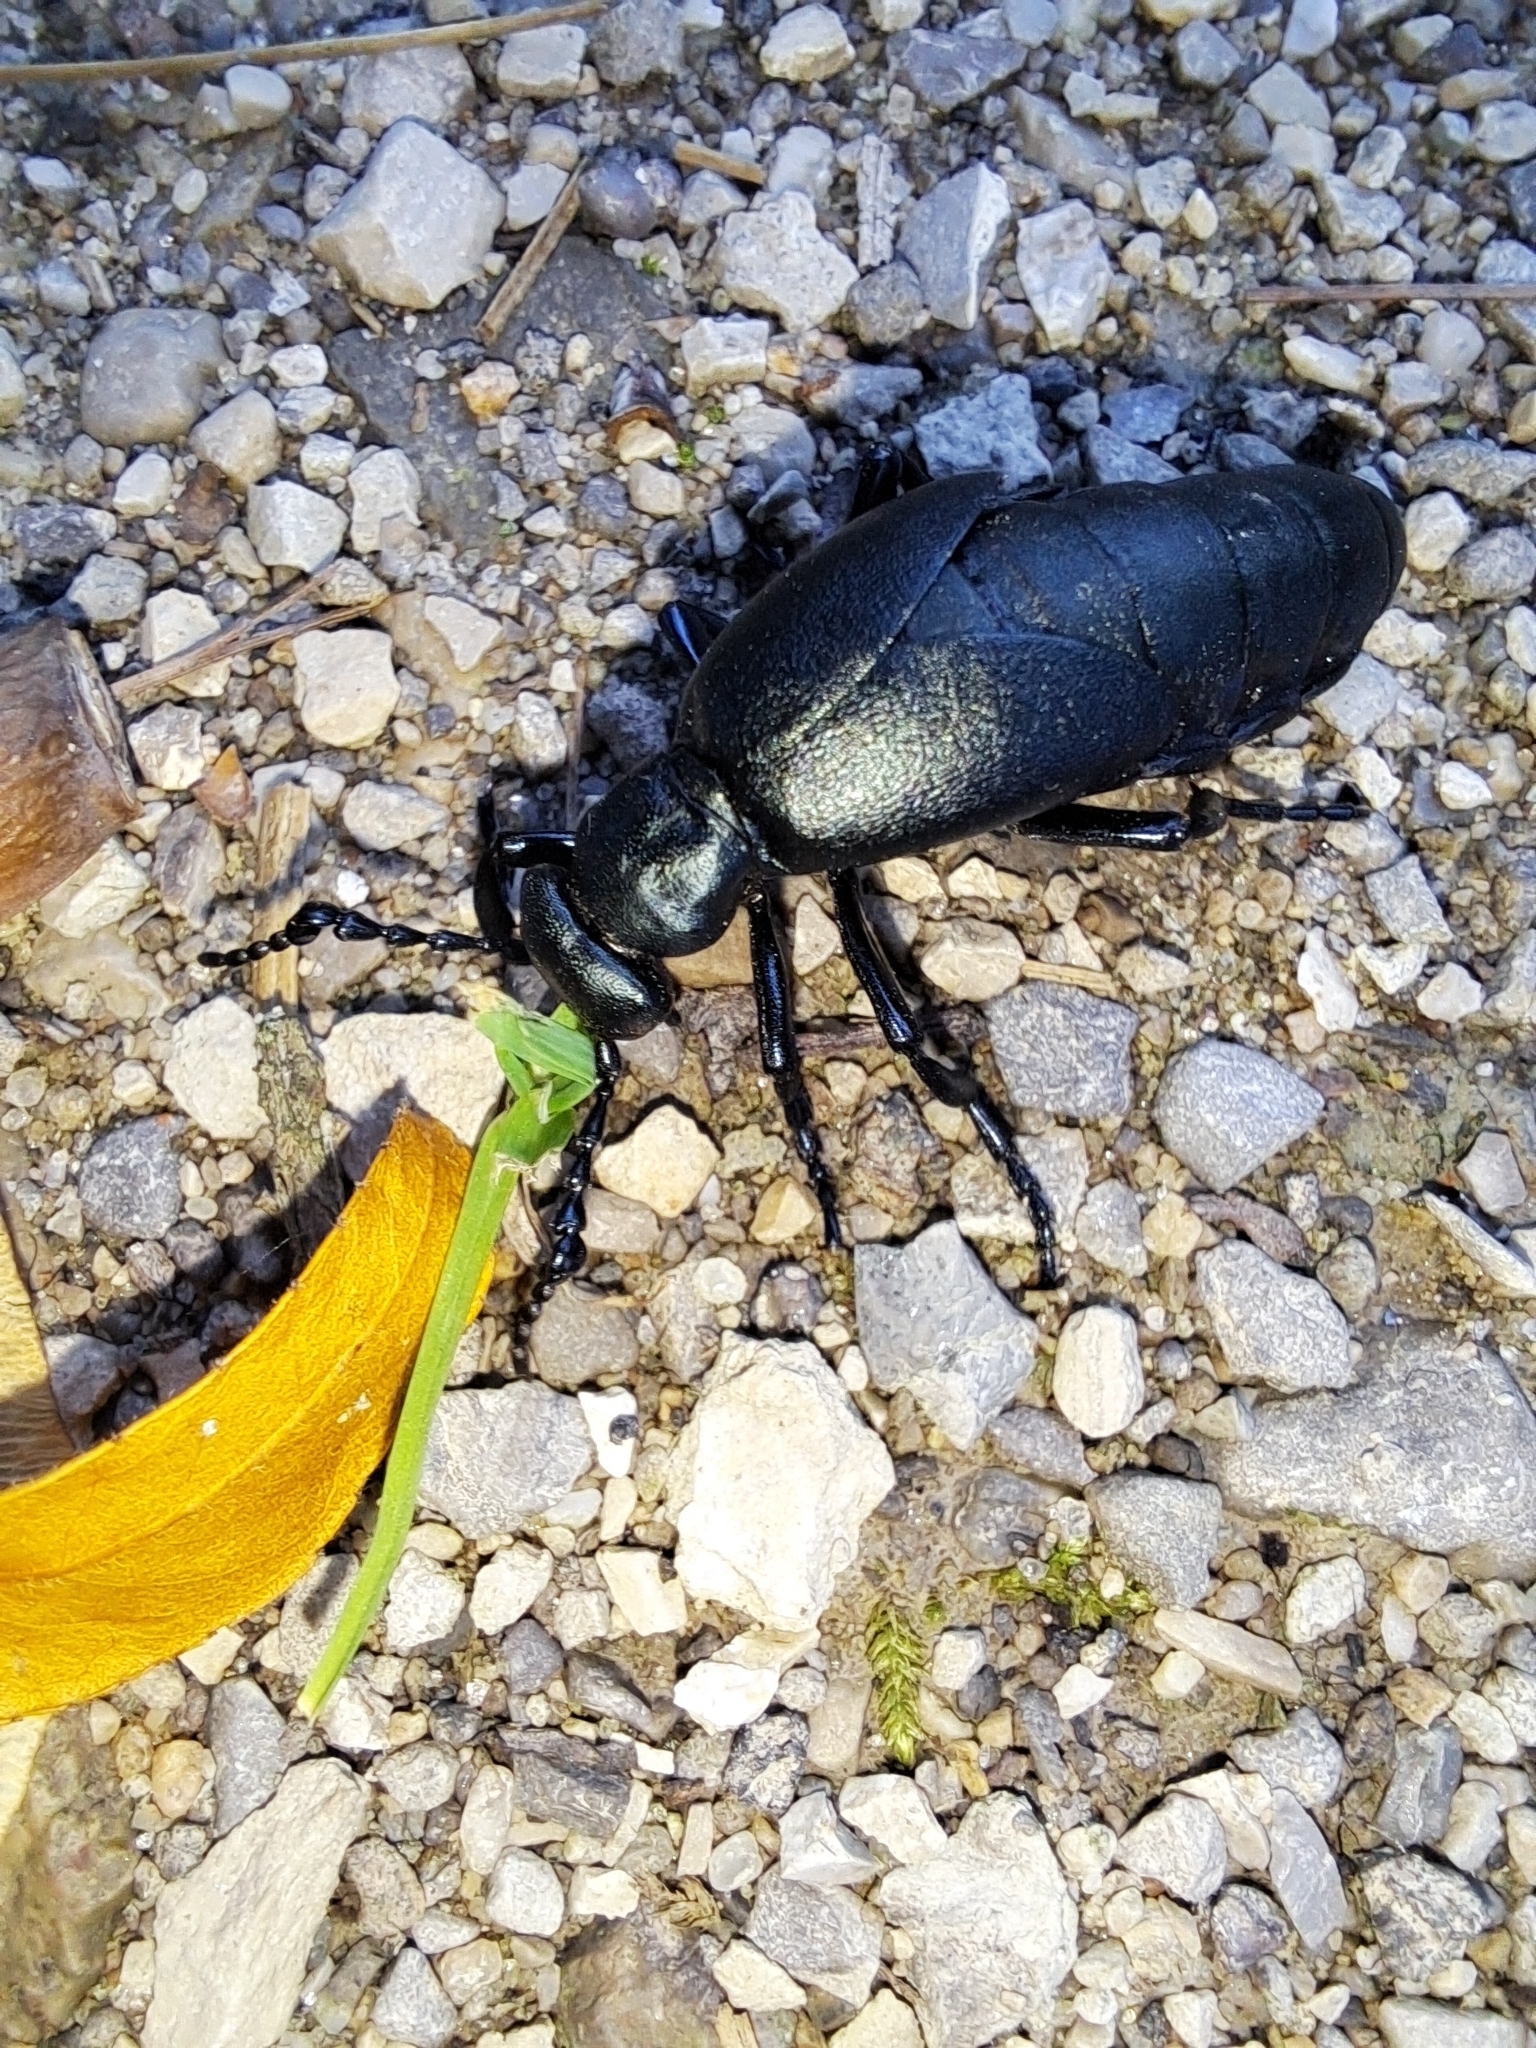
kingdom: Animalia
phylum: Arthropoda
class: Insecta
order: Coleoptera
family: Meloidae
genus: Meloe
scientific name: Meloe campanicollis
